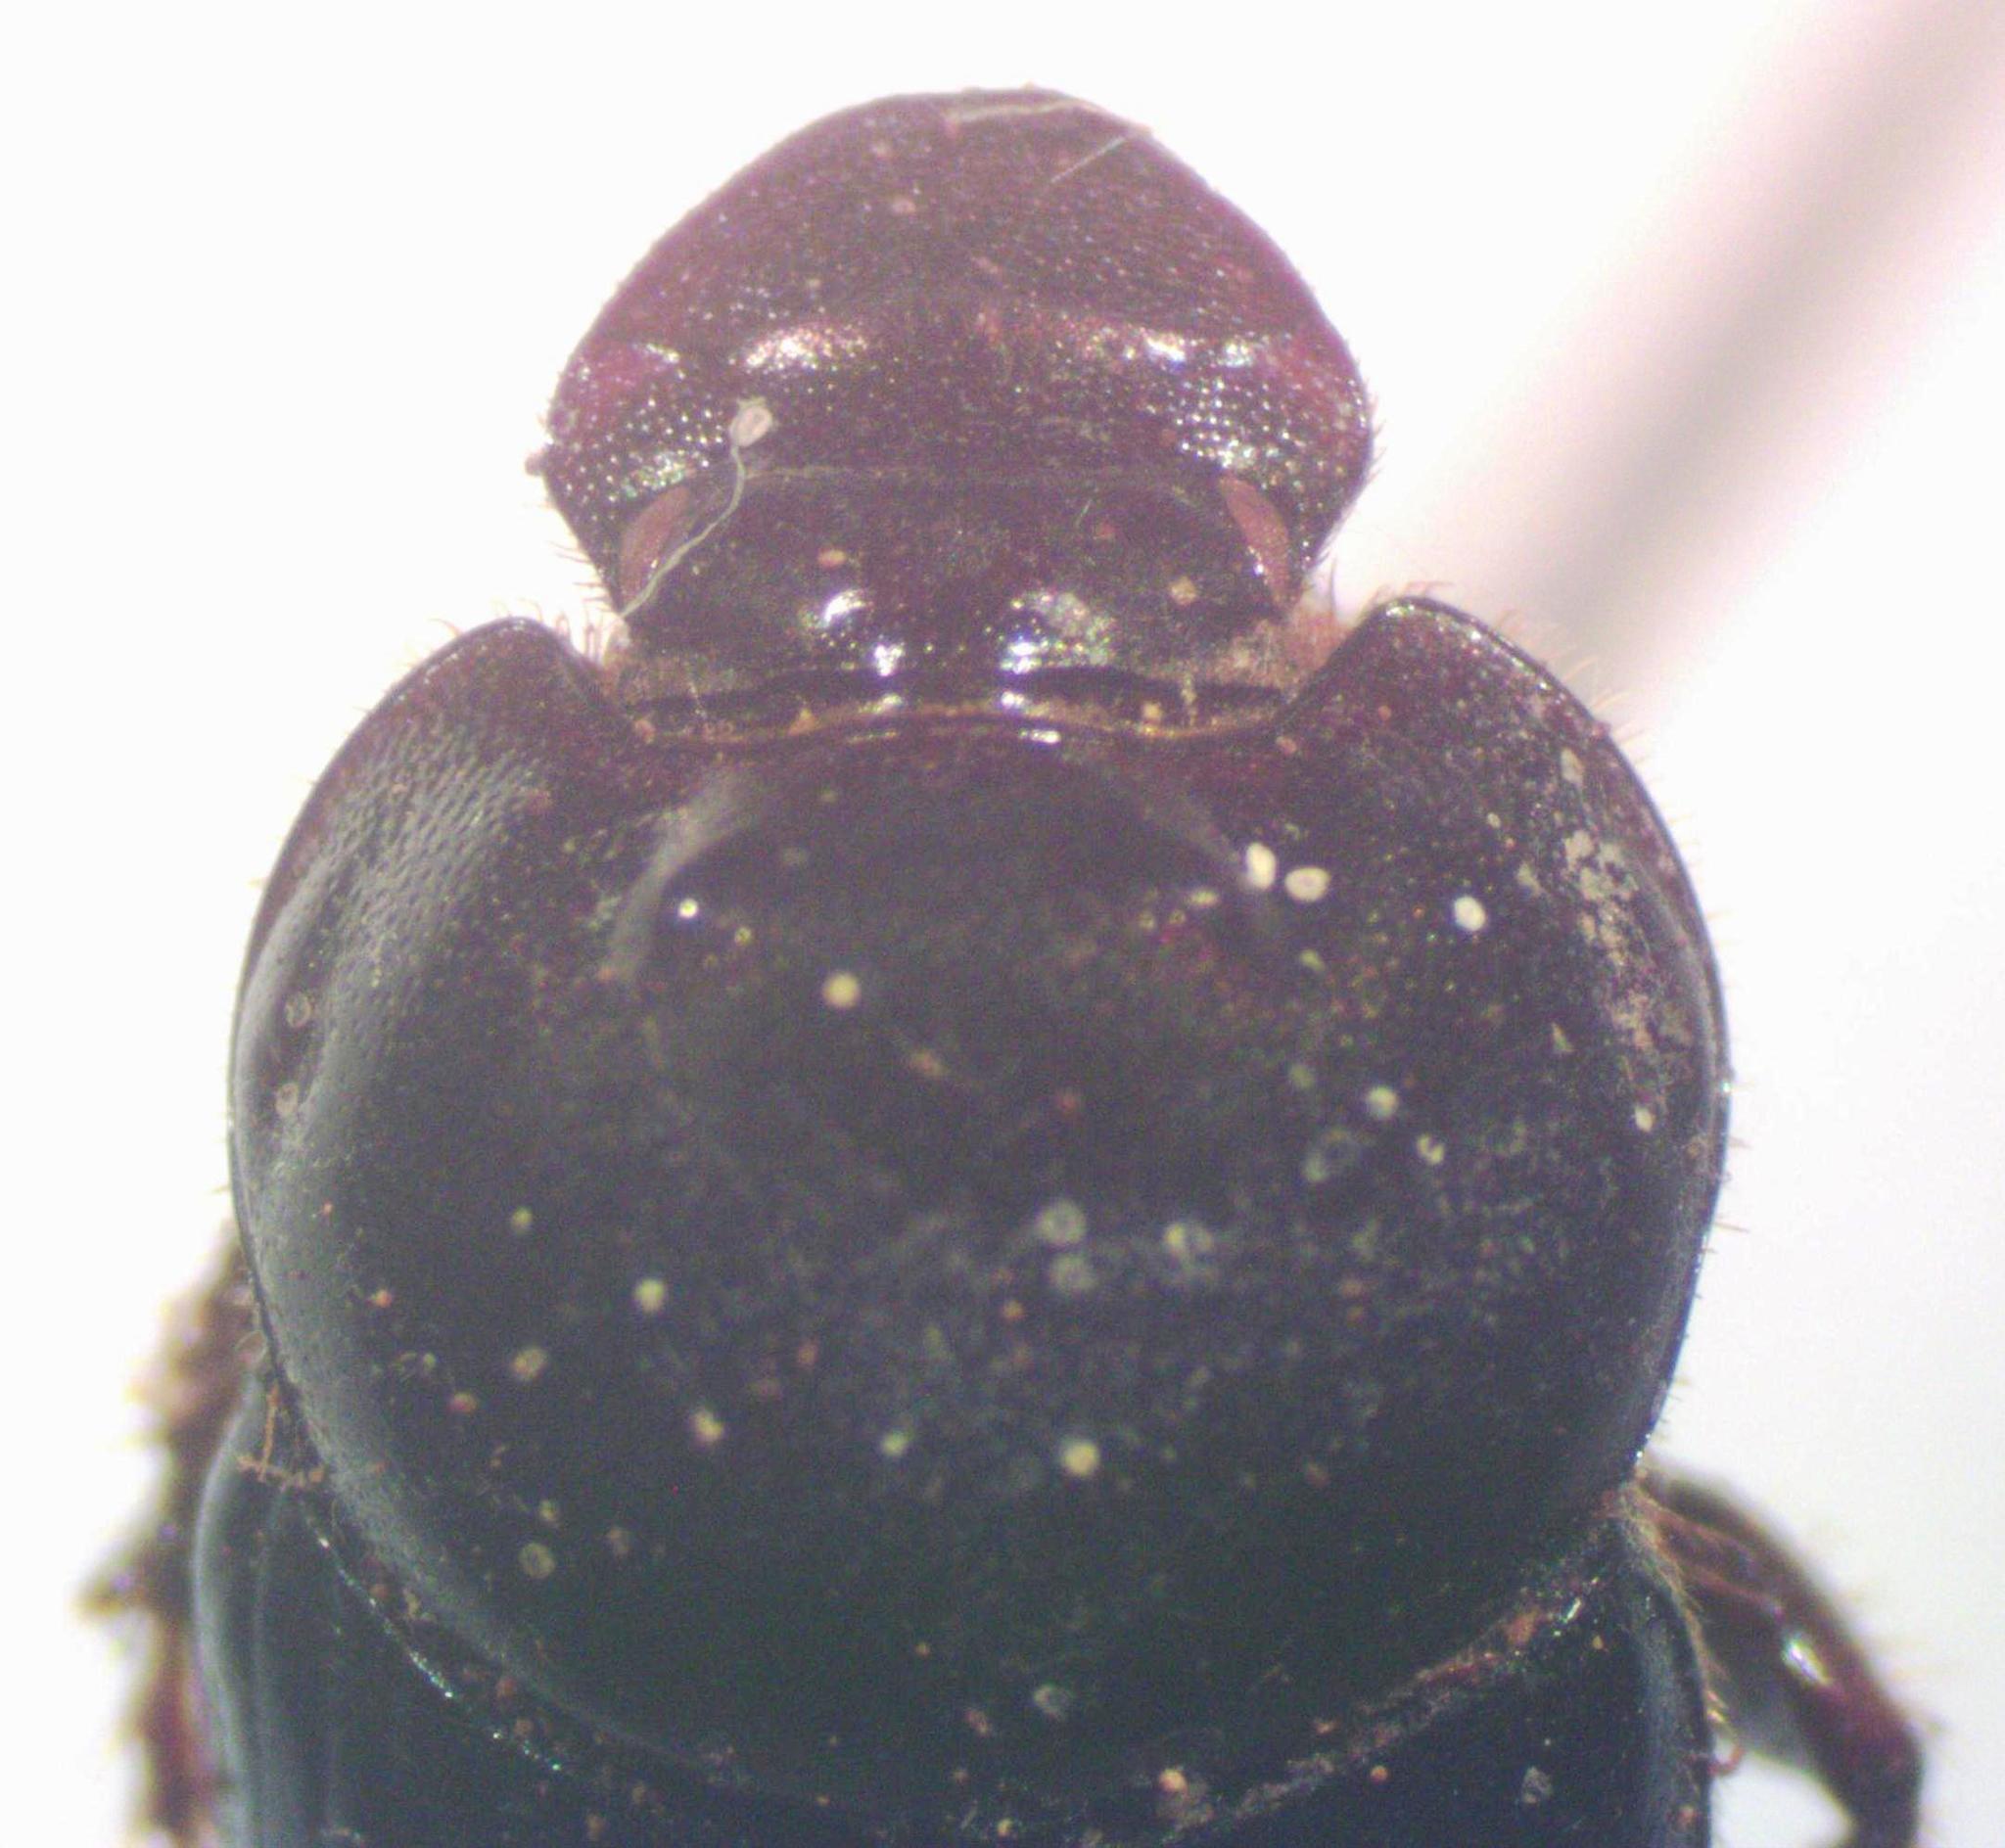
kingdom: Animalia
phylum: Arthropoda
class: Insecta
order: Coleoptera
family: Scarabaeidae
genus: Onthophagus
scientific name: Onthophagus batesi
